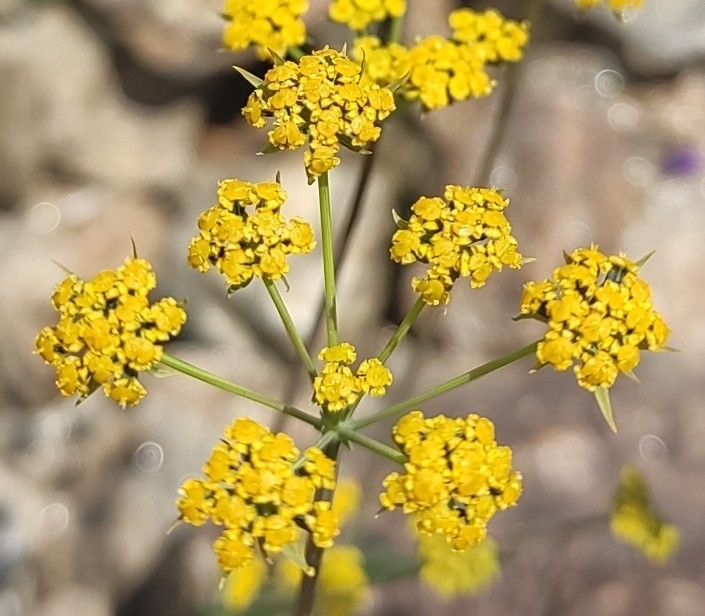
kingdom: Plantae
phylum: Tracheophyta
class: Magnoliopsida
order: Apiales
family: Apiaceae
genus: Bupleurum
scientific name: Bupleurum polyphyllum
